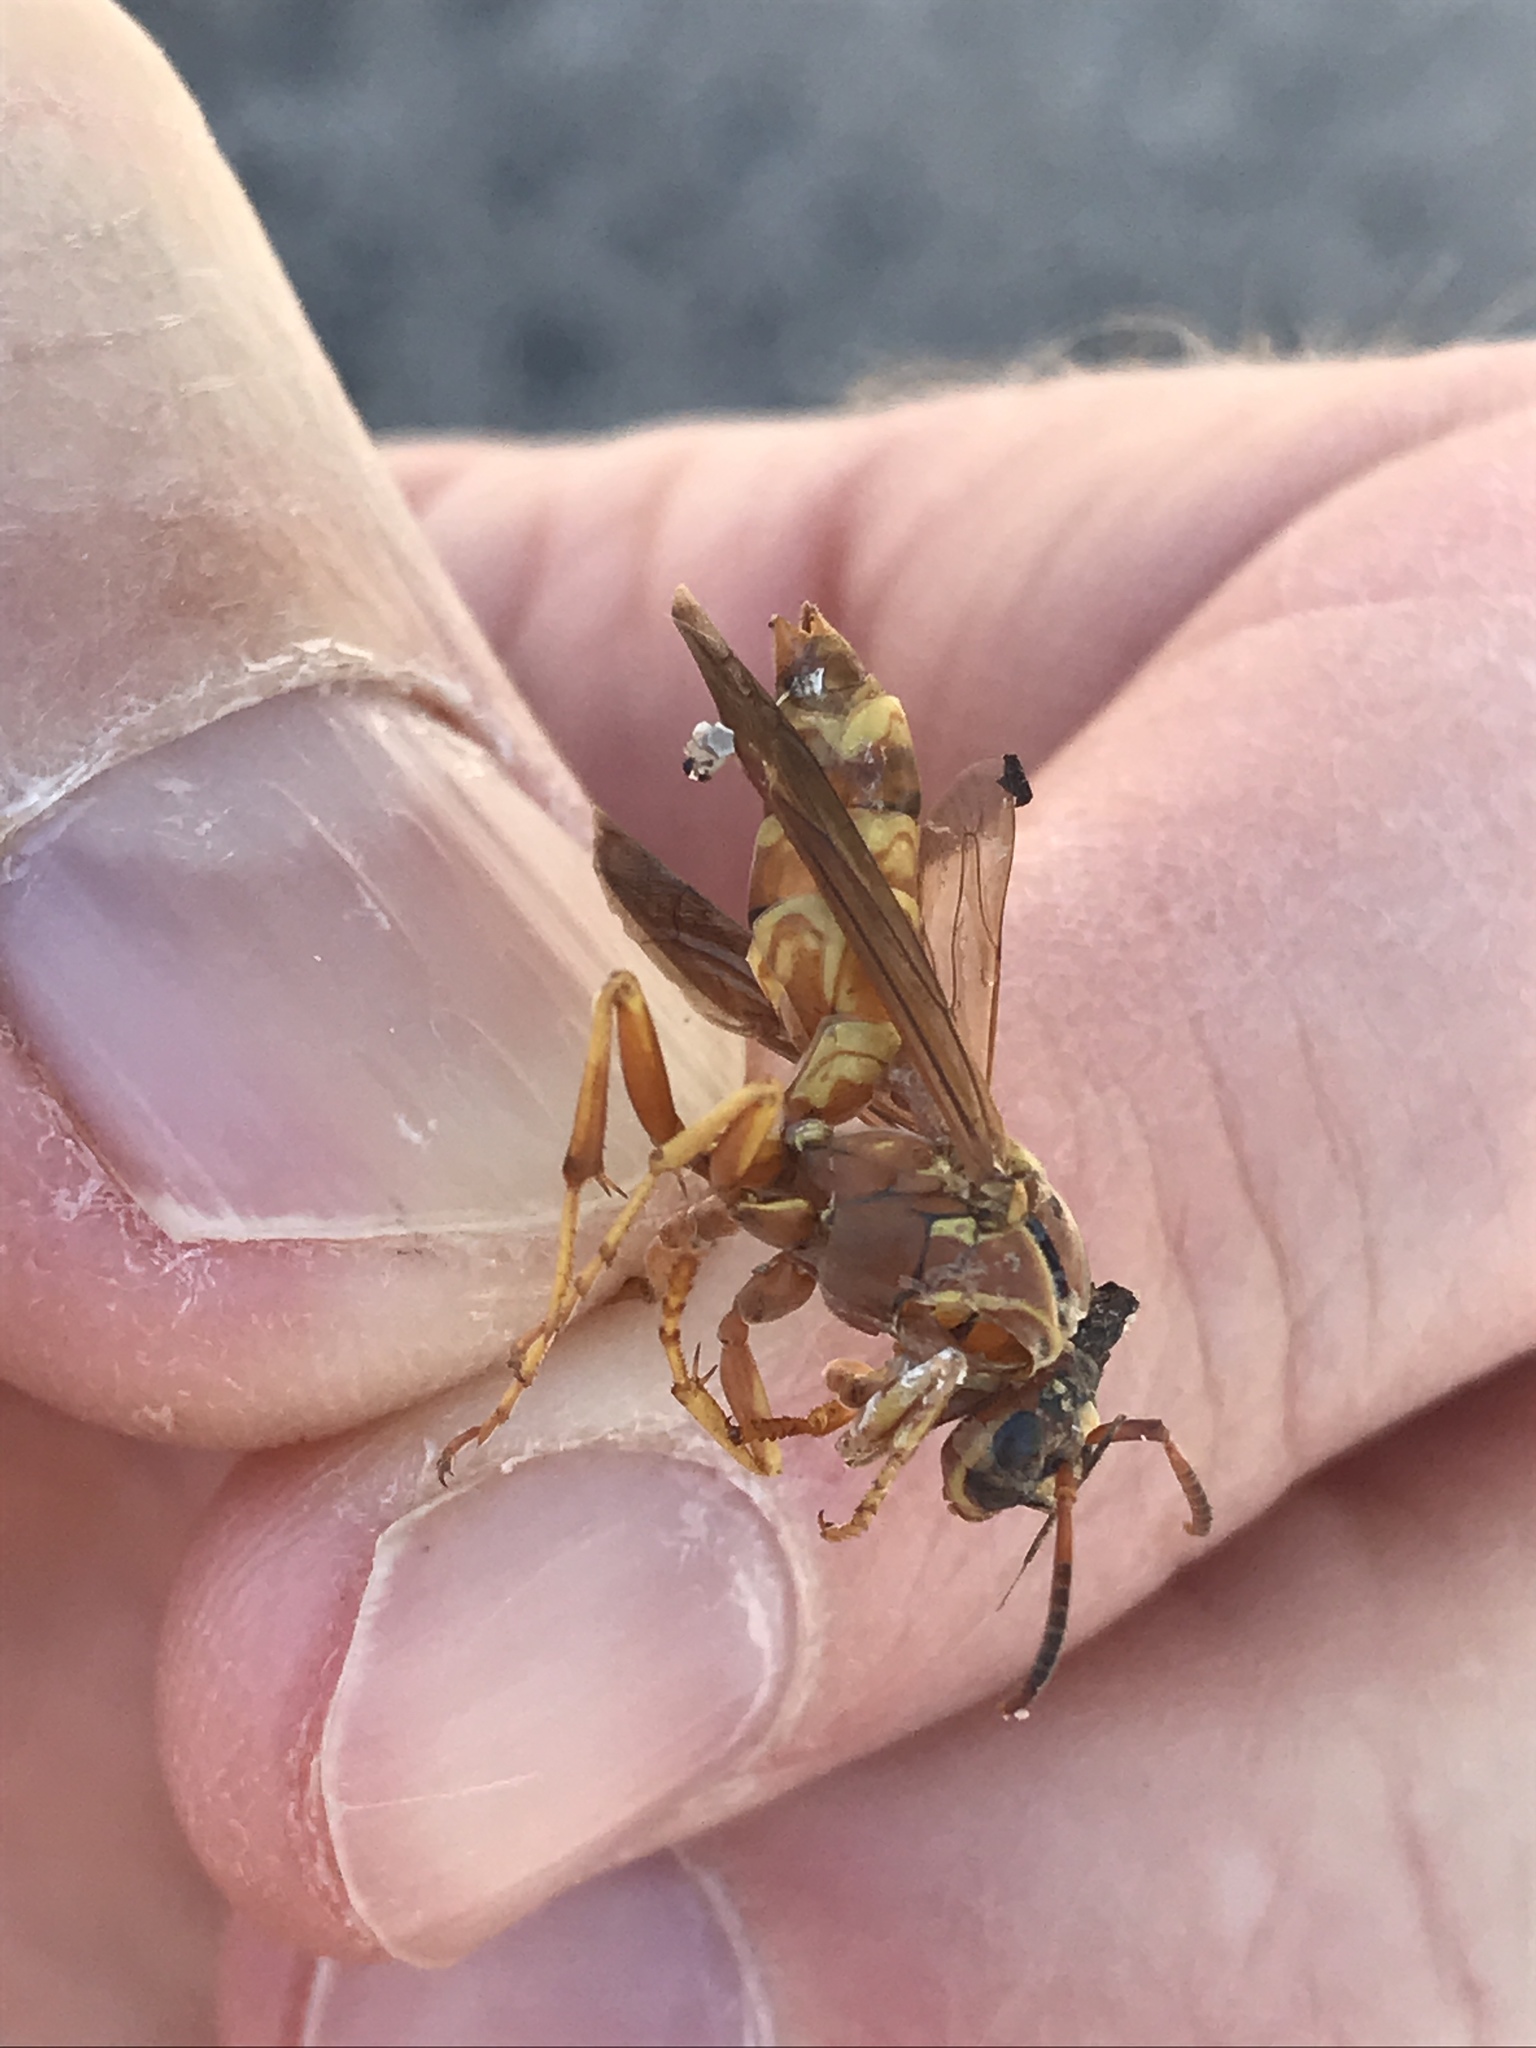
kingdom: Animalia
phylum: Arthropoda
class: Insecta
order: Hymenoptera
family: Eumenidae
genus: Polistes
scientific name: Polistes apachus
